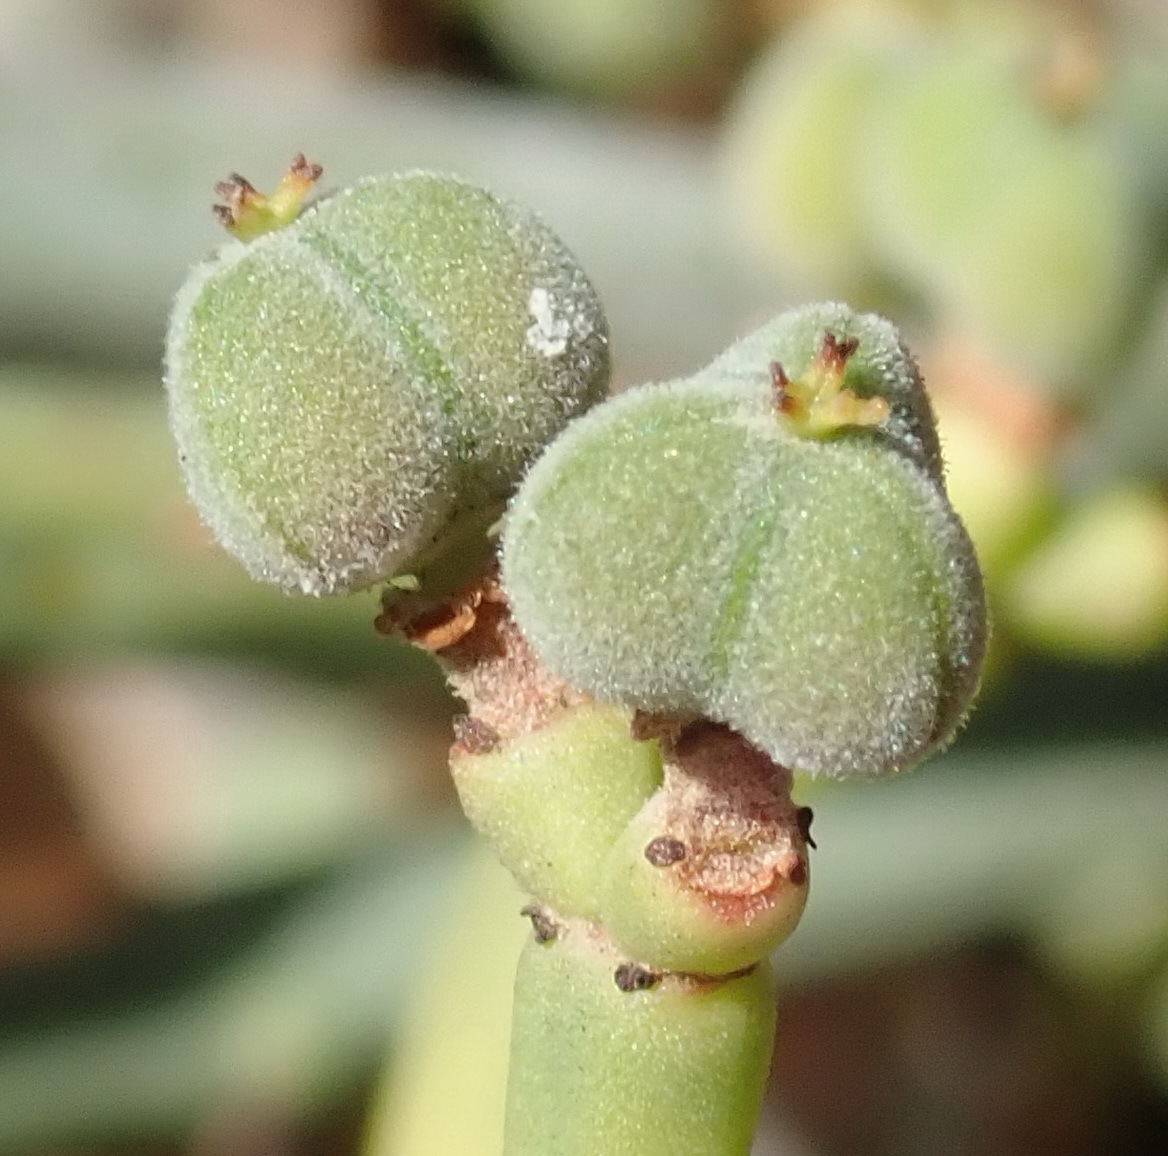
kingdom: Plantae
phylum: Tracheophyta
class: Magnoliopsida
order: Malpighiales
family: Euphorbiaceae
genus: Euphorbia
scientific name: Euphorbia burmanni
